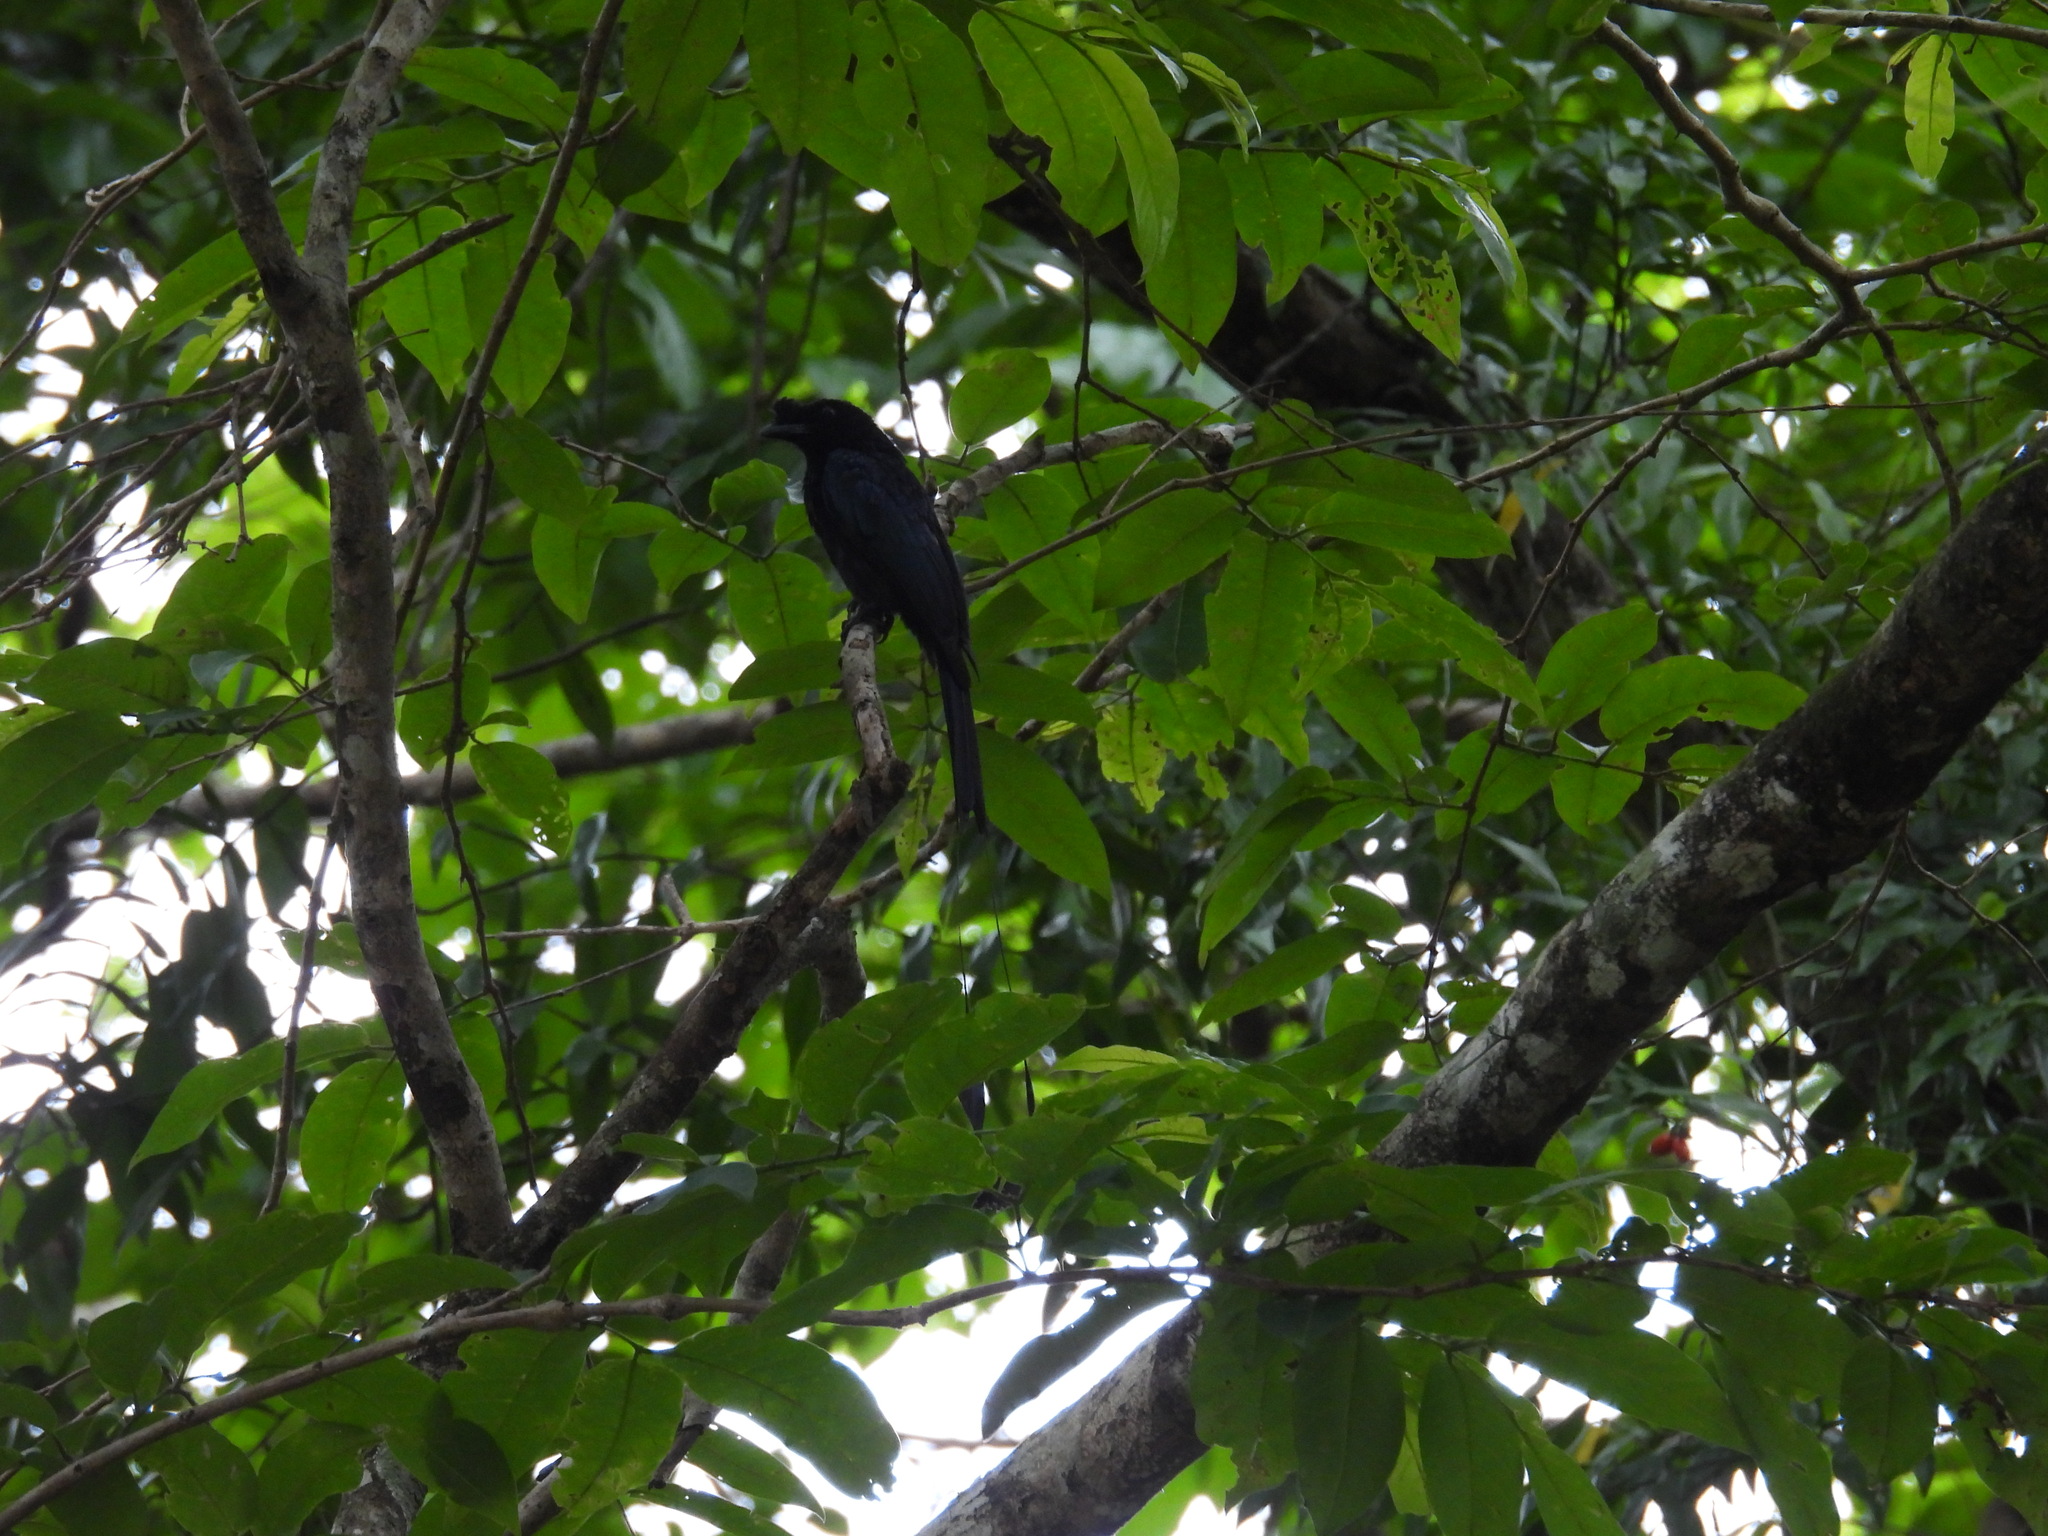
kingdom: Animalia
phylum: Chordata
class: Aves
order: Passeriformes
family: Dicruridae
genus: Dicrurus
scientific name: Dicrurus paradiseus
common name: Greater racket-tailed drongo
